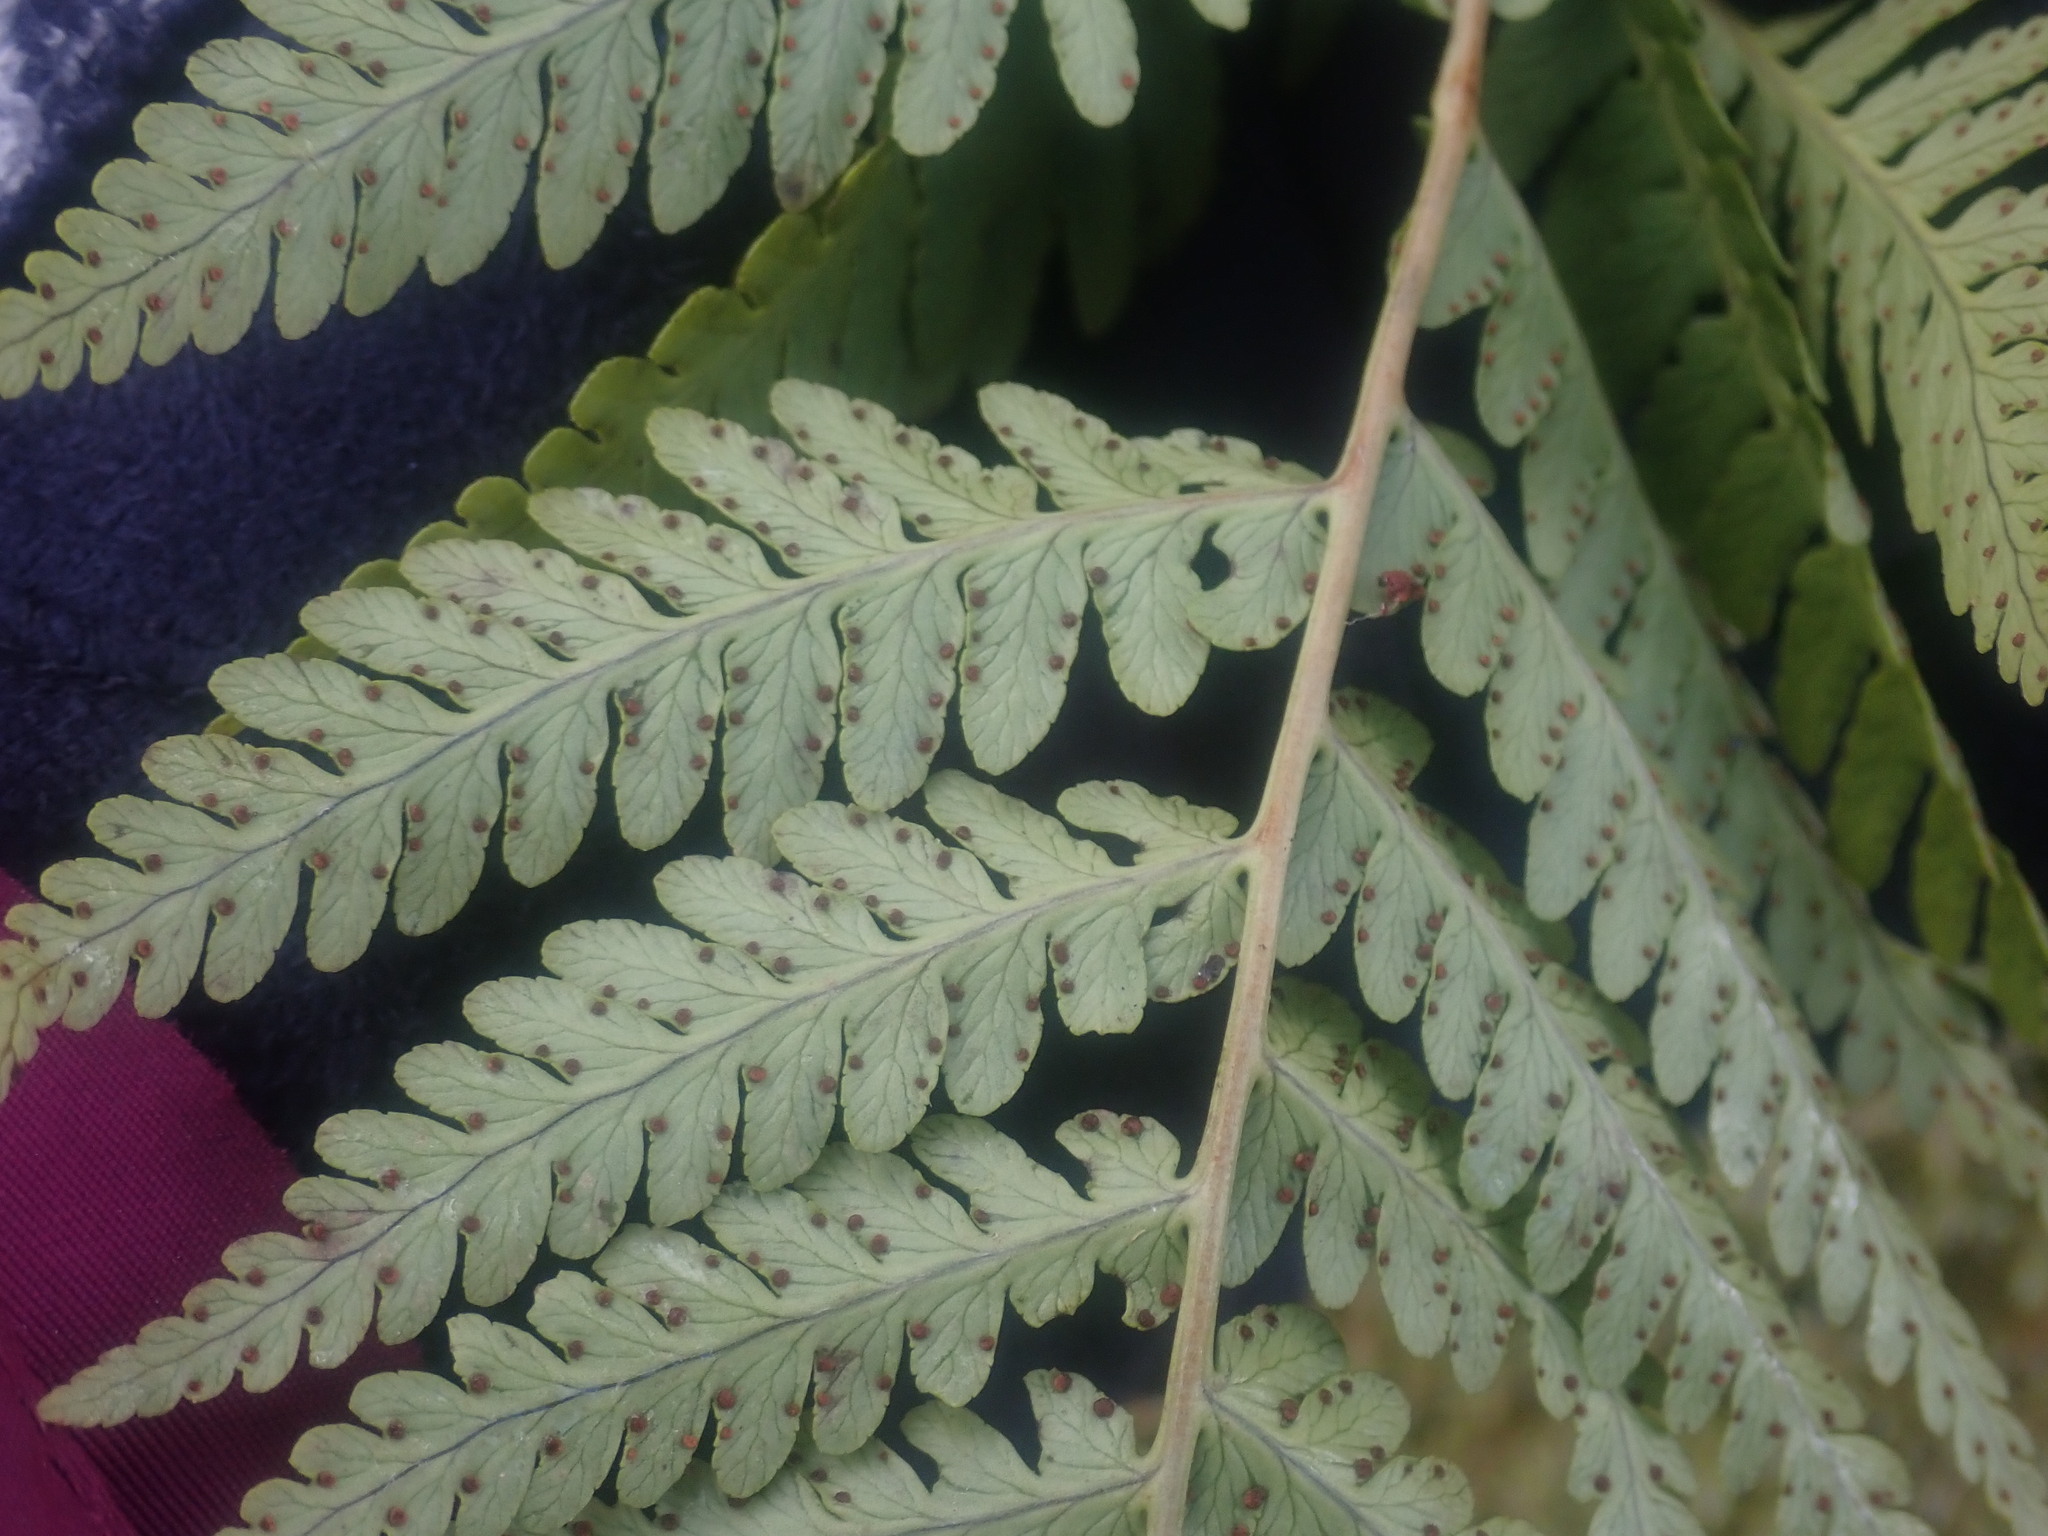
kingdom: Plantae
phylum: Tracheophyta
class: Polypodiopsida
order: Polypodiales
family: Dryopteridaceae
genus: Dryopteris
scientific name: Dryopteris marginalis
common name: Marginal wood fern
